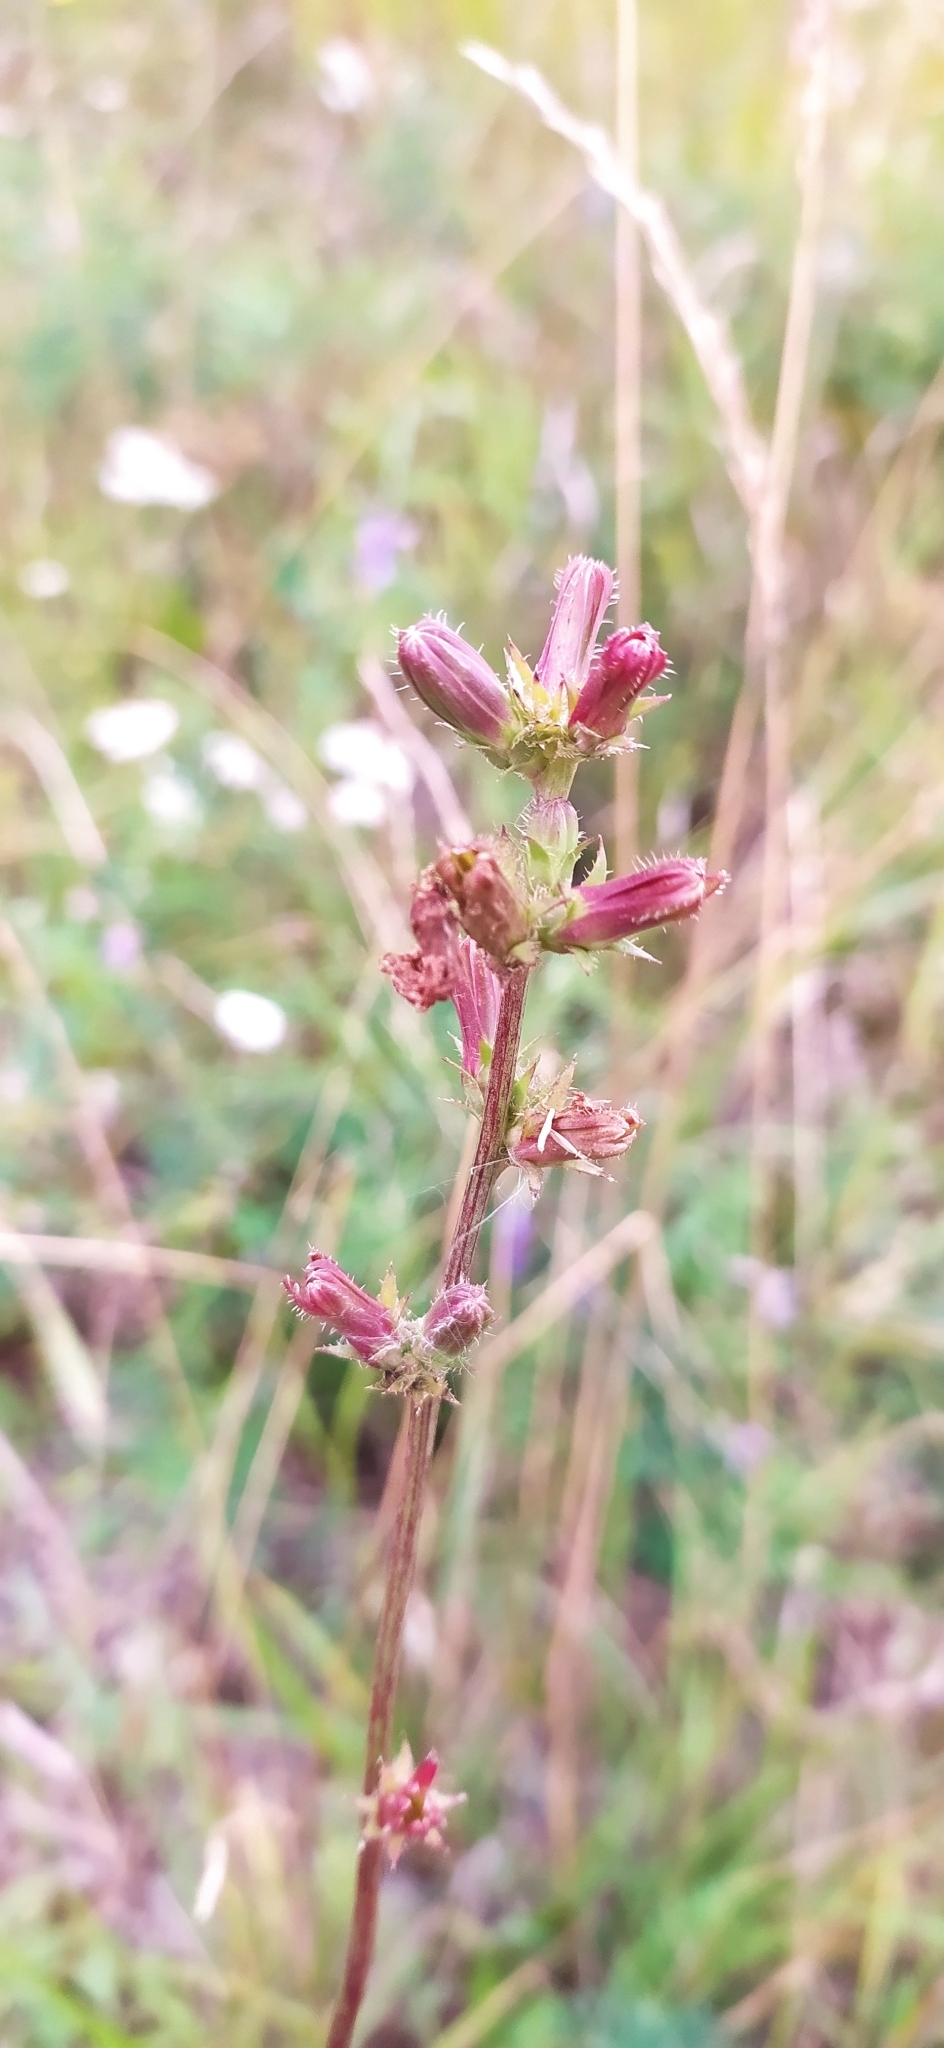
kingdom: Plantae
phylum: Tracheophyta
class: Magnoliopsida
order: Asterales
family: Asteraceae
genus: Cichorium
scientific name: Cichorium intybus
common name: Chicory
